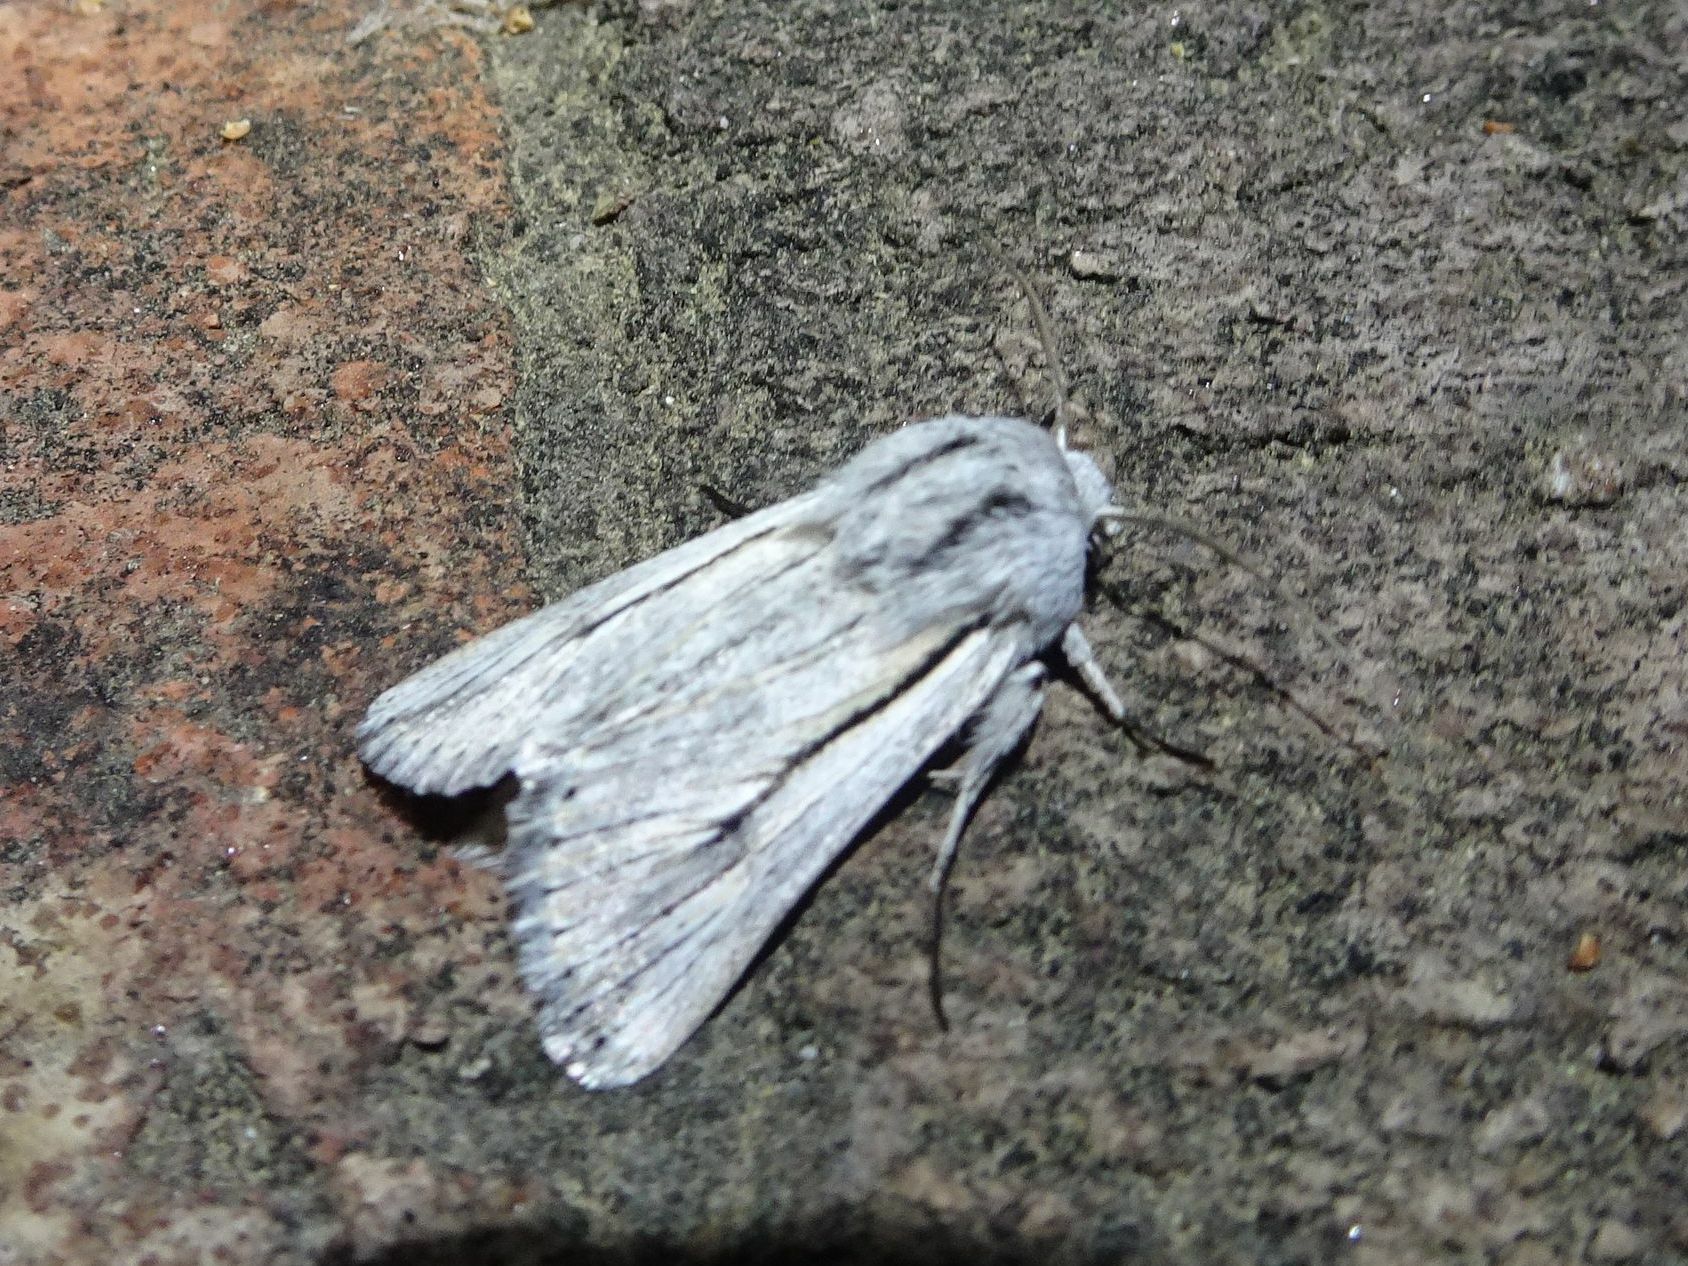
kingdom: Animalia
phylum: Arthropoda
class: Insecta
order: Lepidoptera
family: Noctuidae
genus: Ectochela
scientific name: Ectochela nigrilineata
